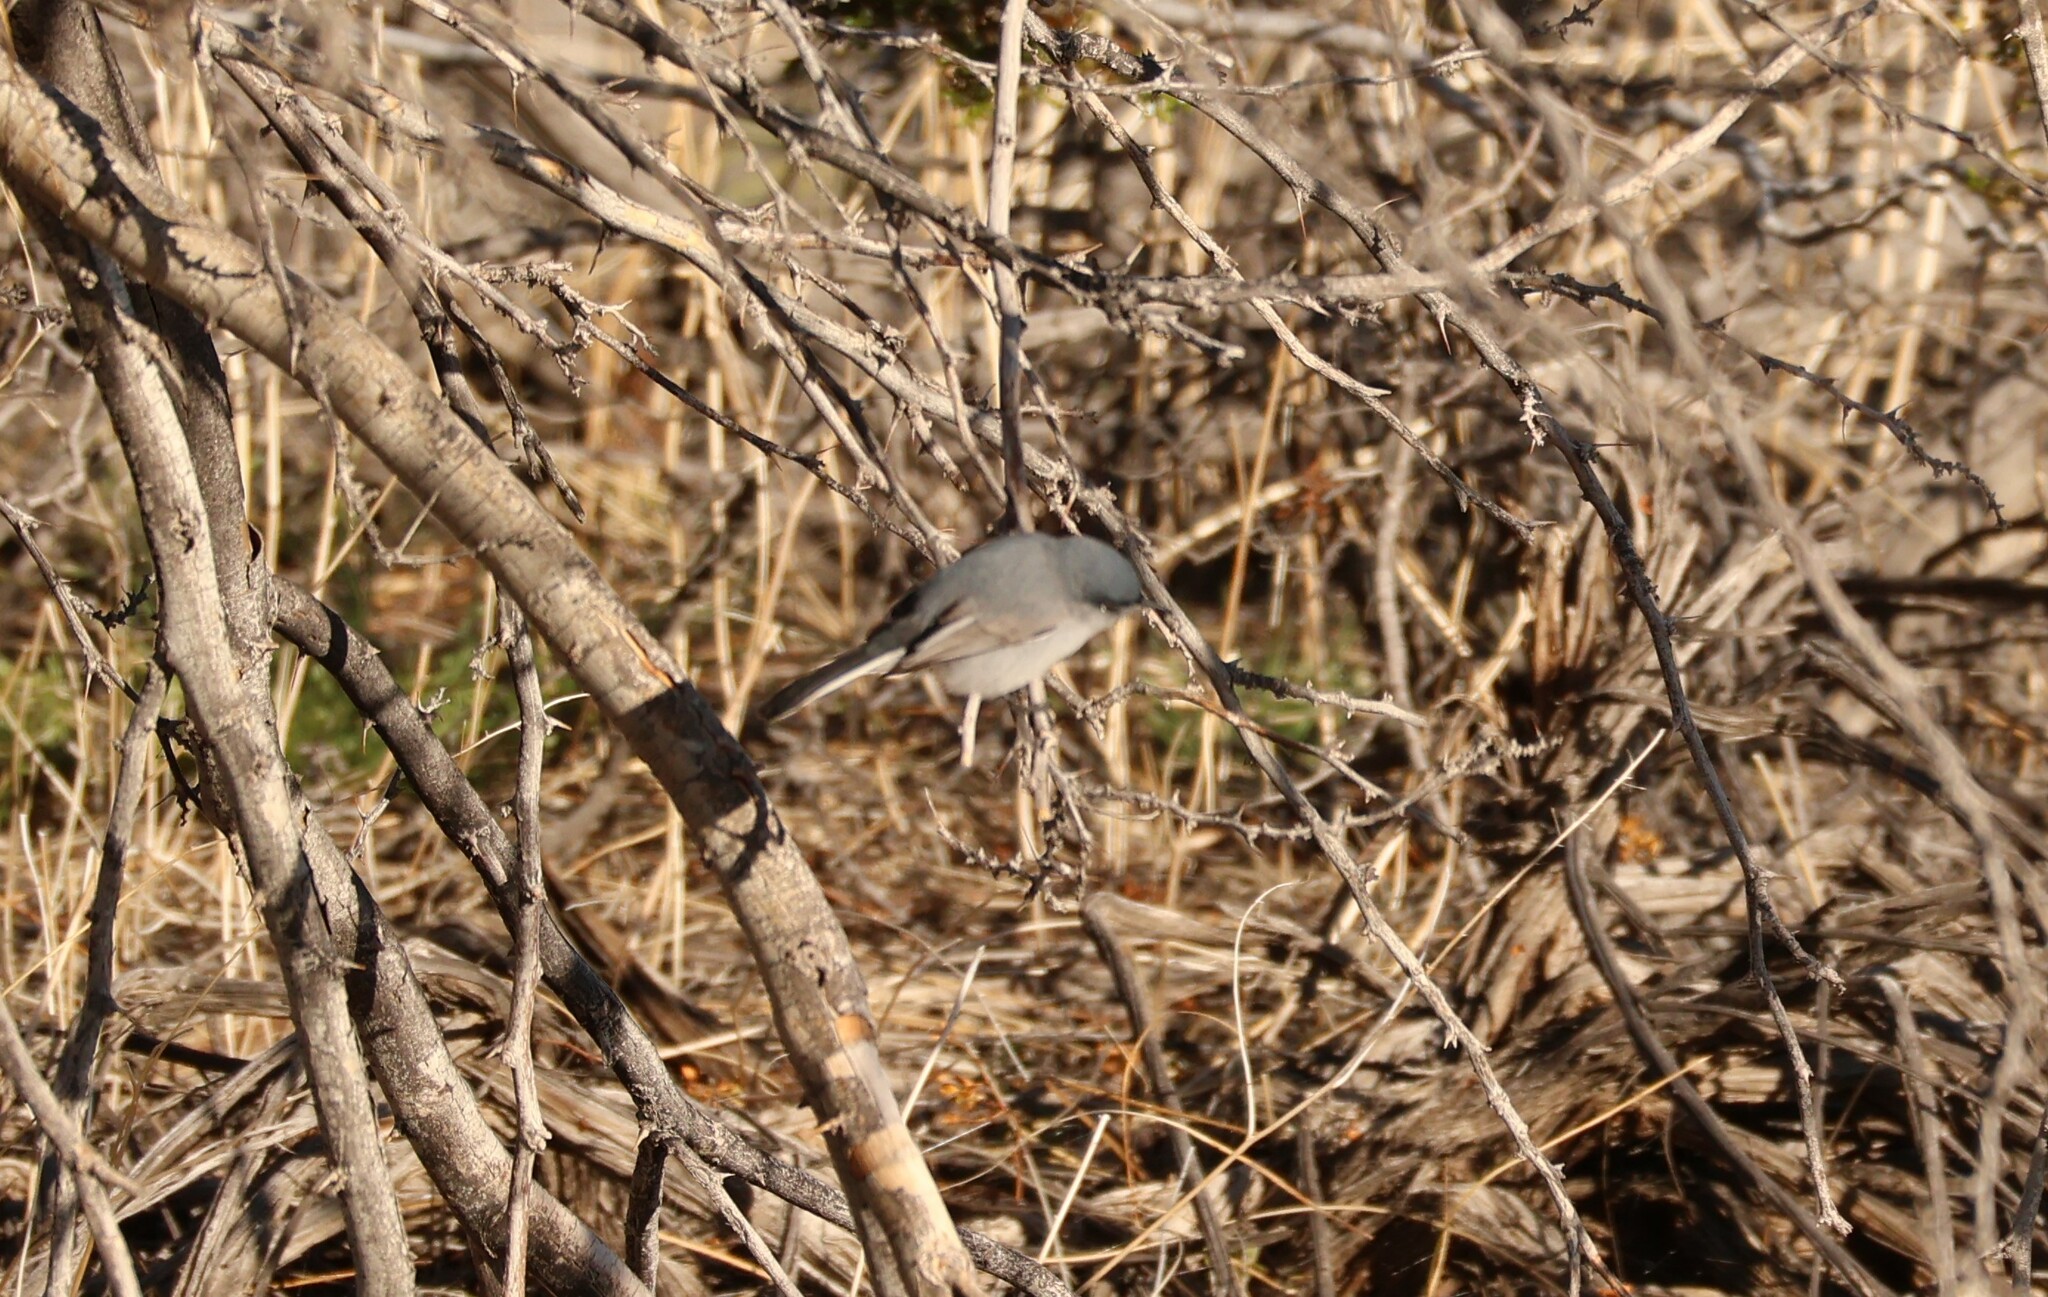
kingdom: Animalia
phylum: Chordata
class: Aves
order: Passeriformes
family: Polioptilidae
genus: Polioptila
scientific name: Polioptila caerulea
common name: Blue-gray gnatcatcher
